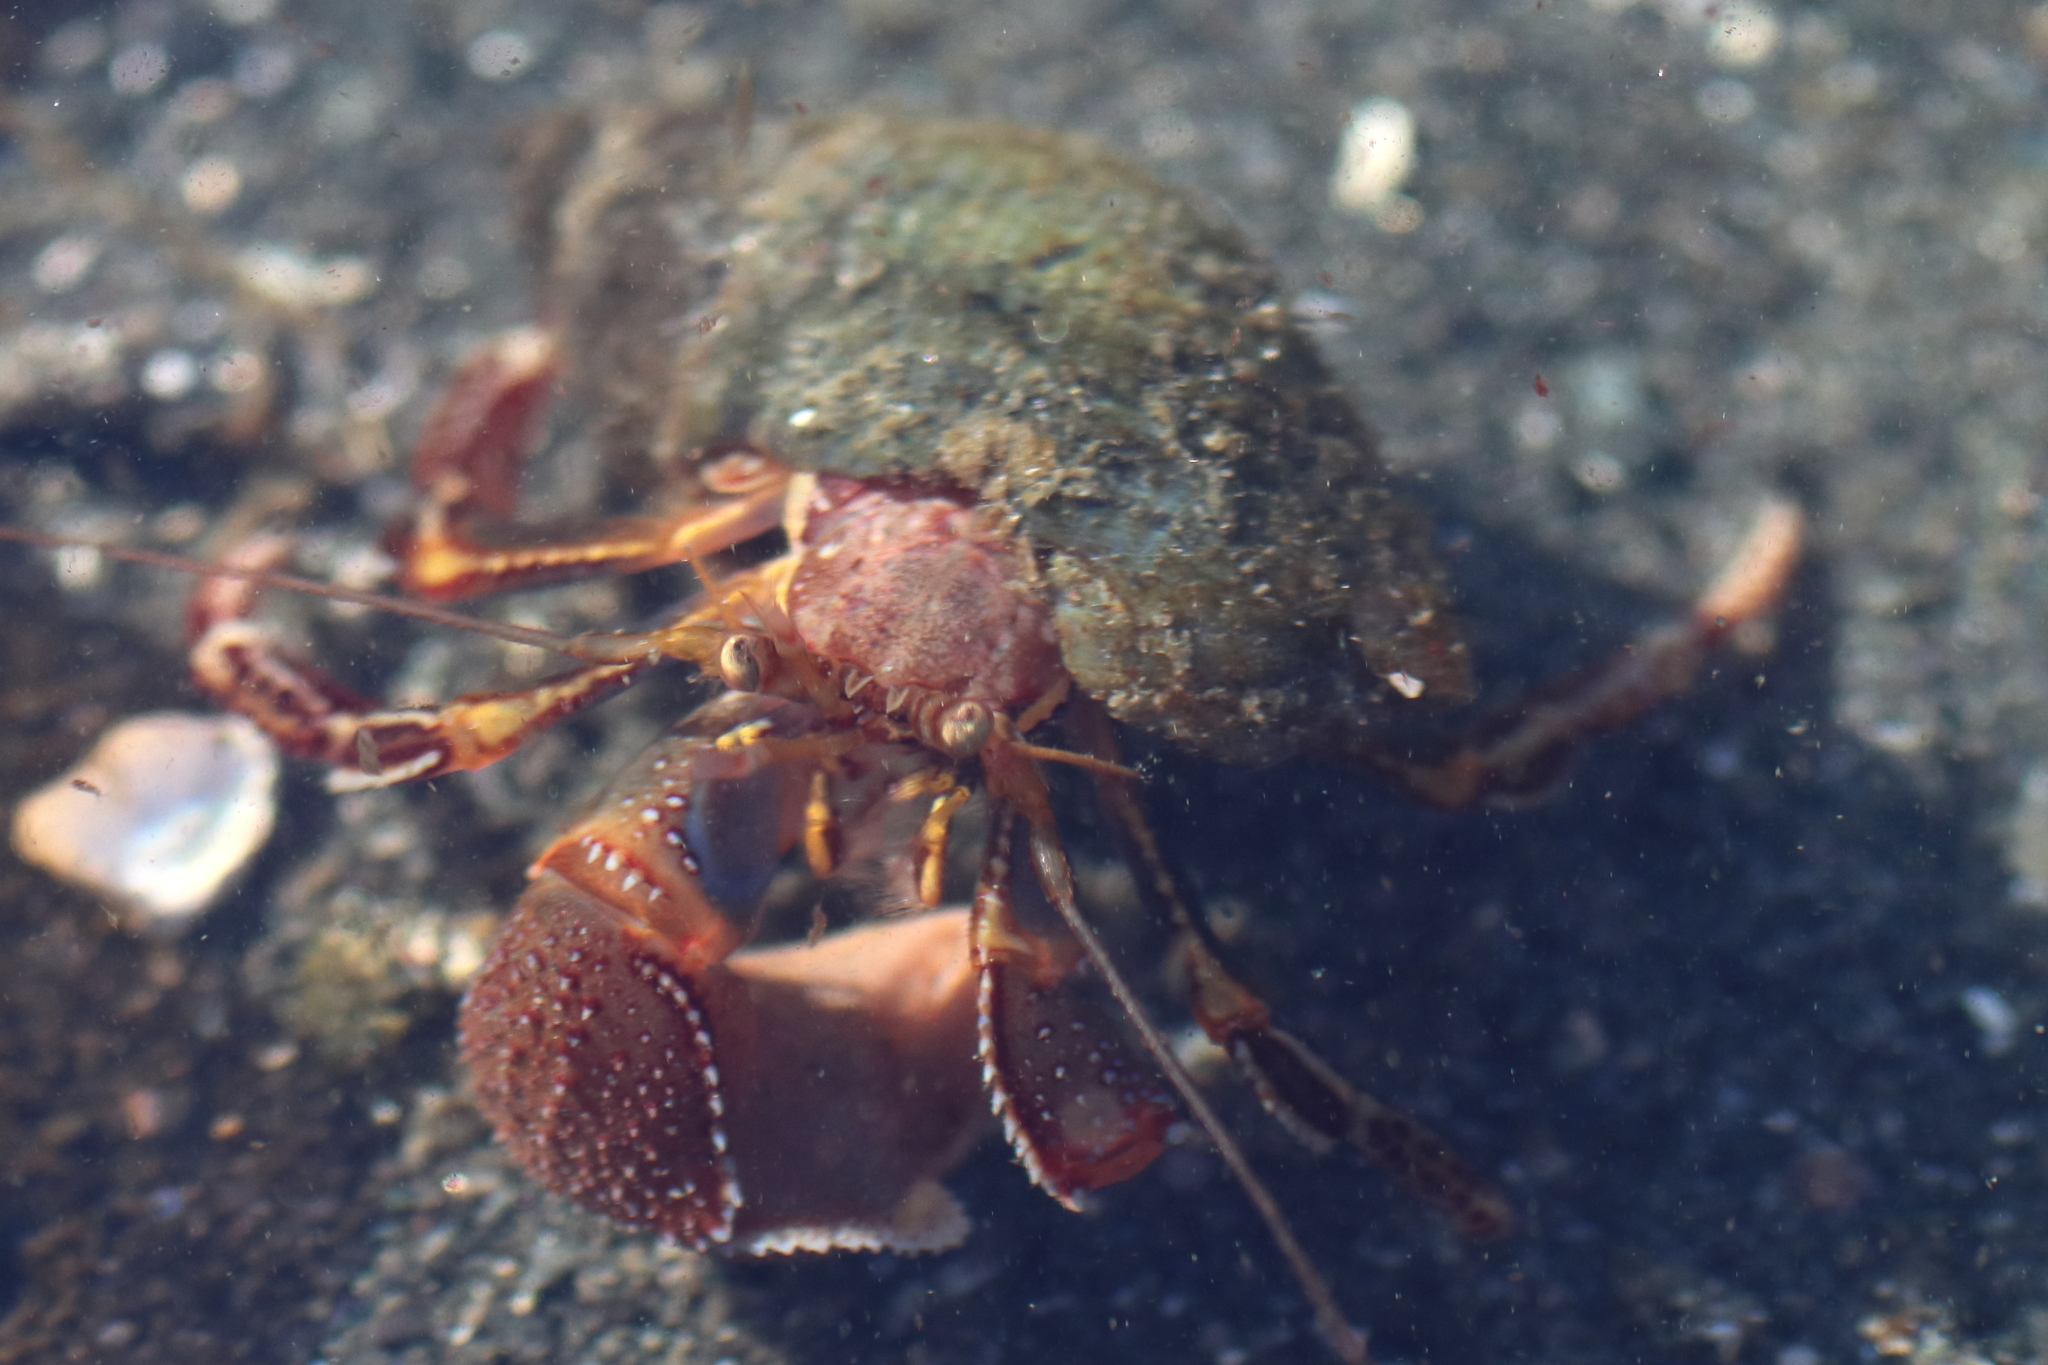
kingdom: Animalia
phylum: Arthropoda
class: Malacostraca
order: Decapoda
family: Paguridae
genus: Elassochirus
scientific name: Elassochirus tenuimanus
